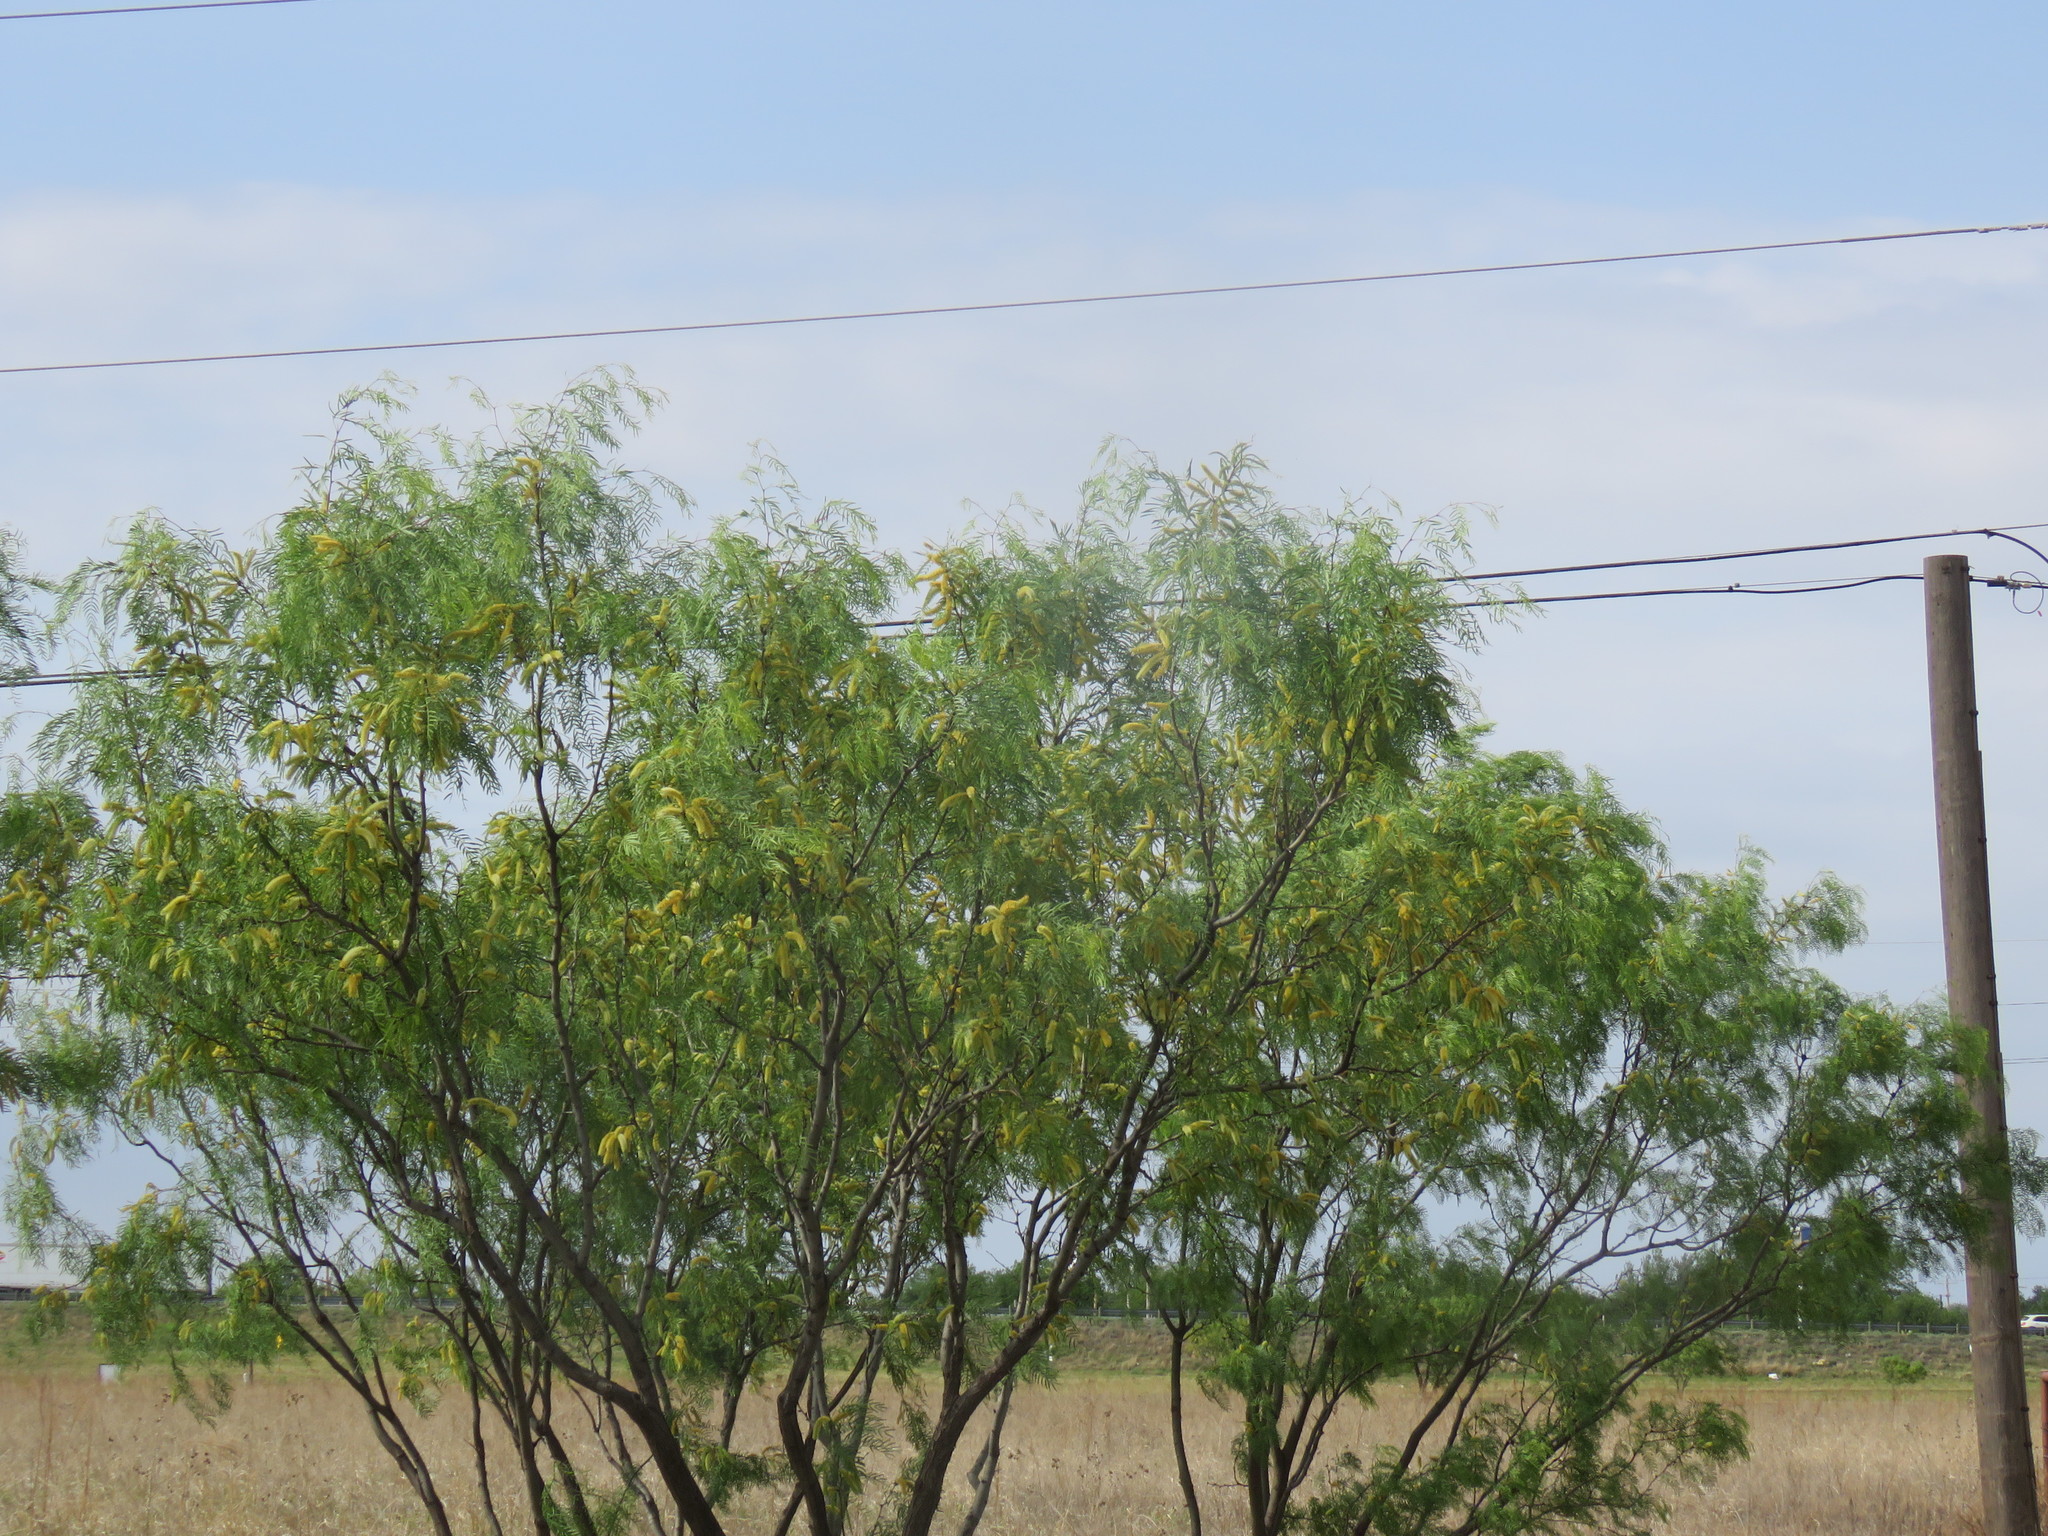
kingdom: Plantae
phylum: Tracheophyta
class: Magnoliopsida
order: Fabales
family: Fabaceae
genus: Prosopis
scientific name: Prosopis glandulosa
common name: Honey mesquite
